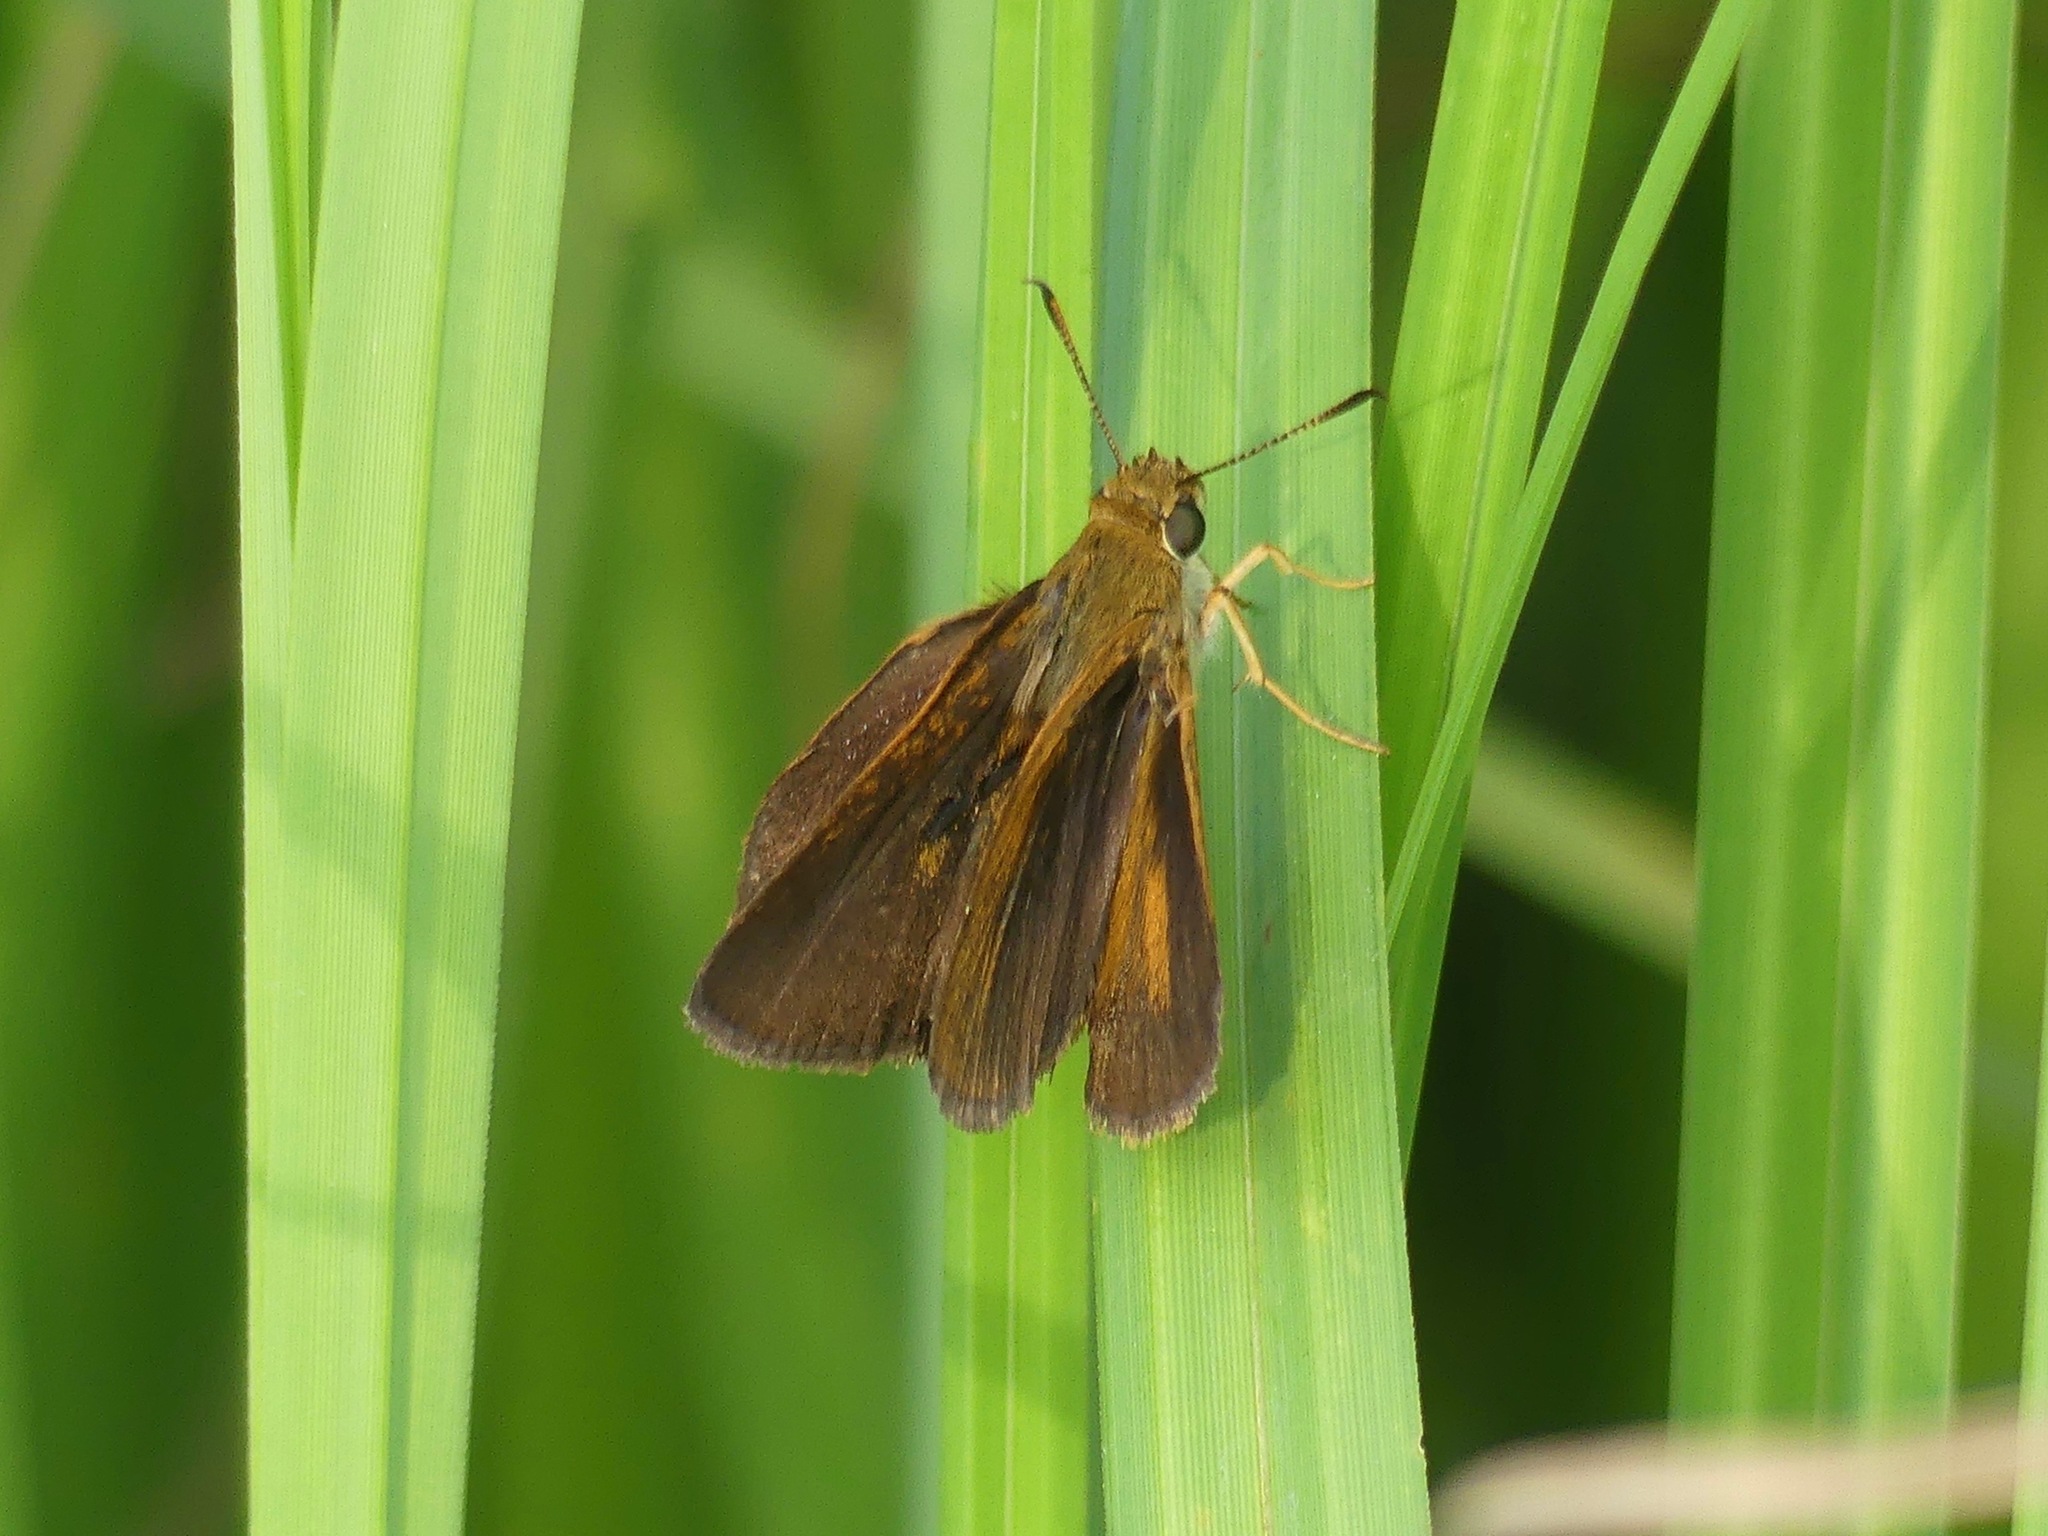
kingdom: Animalia
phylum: Arthropoda
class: Insecta
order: Lepidoptera
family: Hesperiidae
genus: Euphyes
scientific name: Euphyes dukesi
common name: Dukes' skipper
